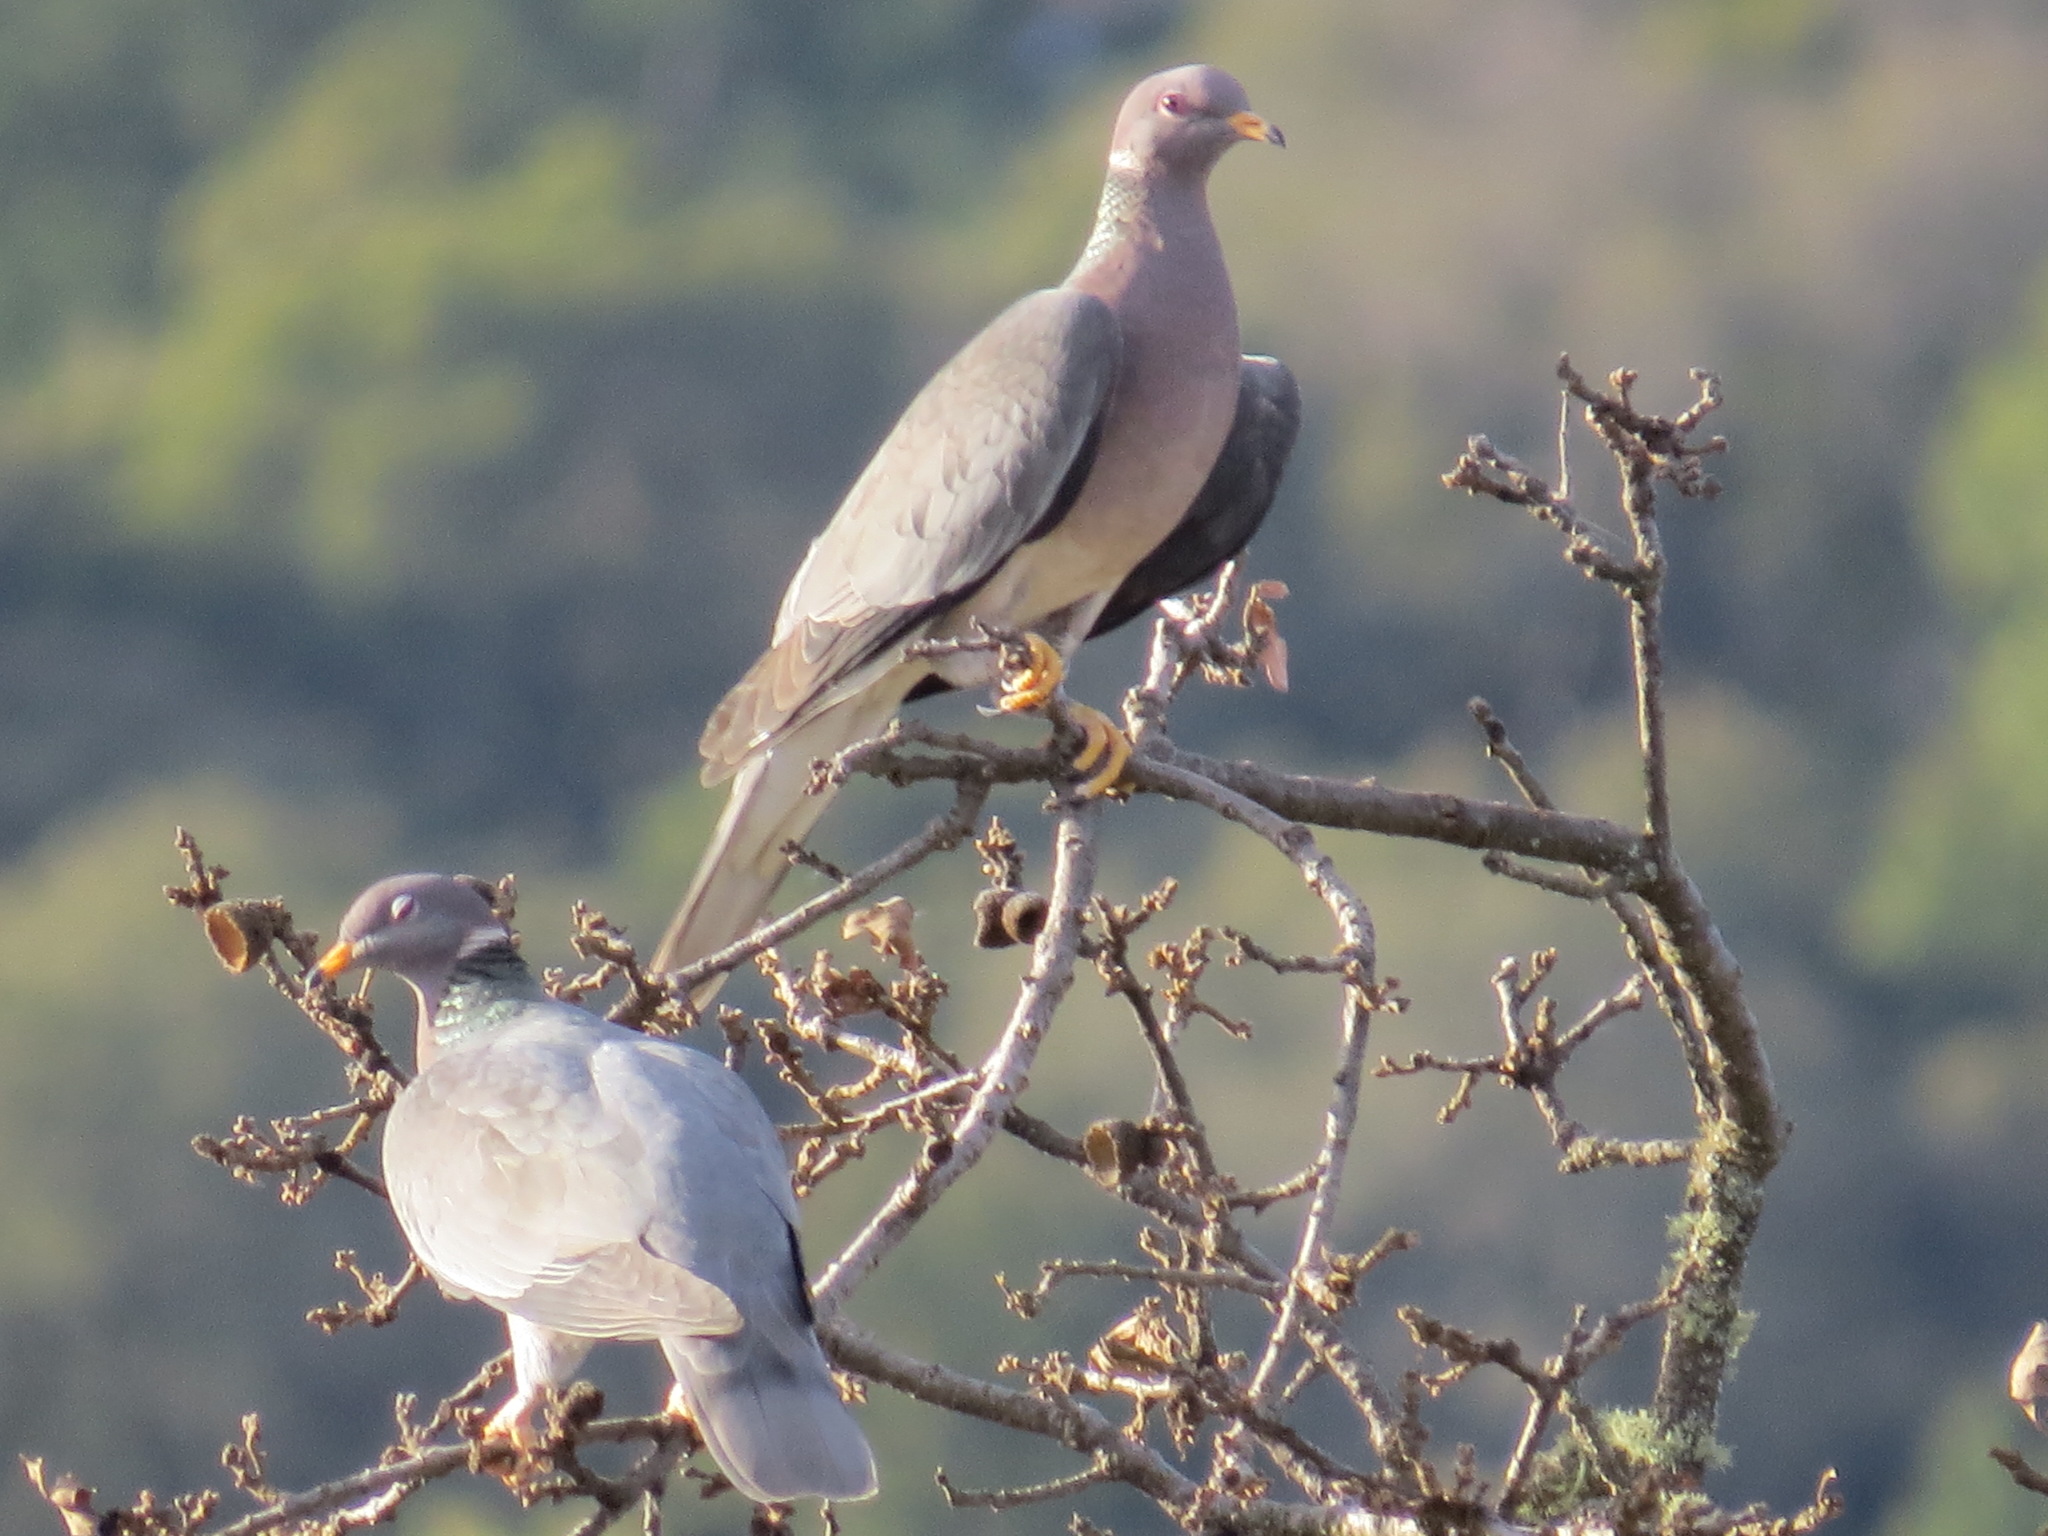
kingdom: Animalia
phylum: Chordata
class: Aves
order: Columbiformes
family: Columbidae
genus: Patagioenas
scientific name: Patagioenas fasciata
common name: Band-tailed pigeon
